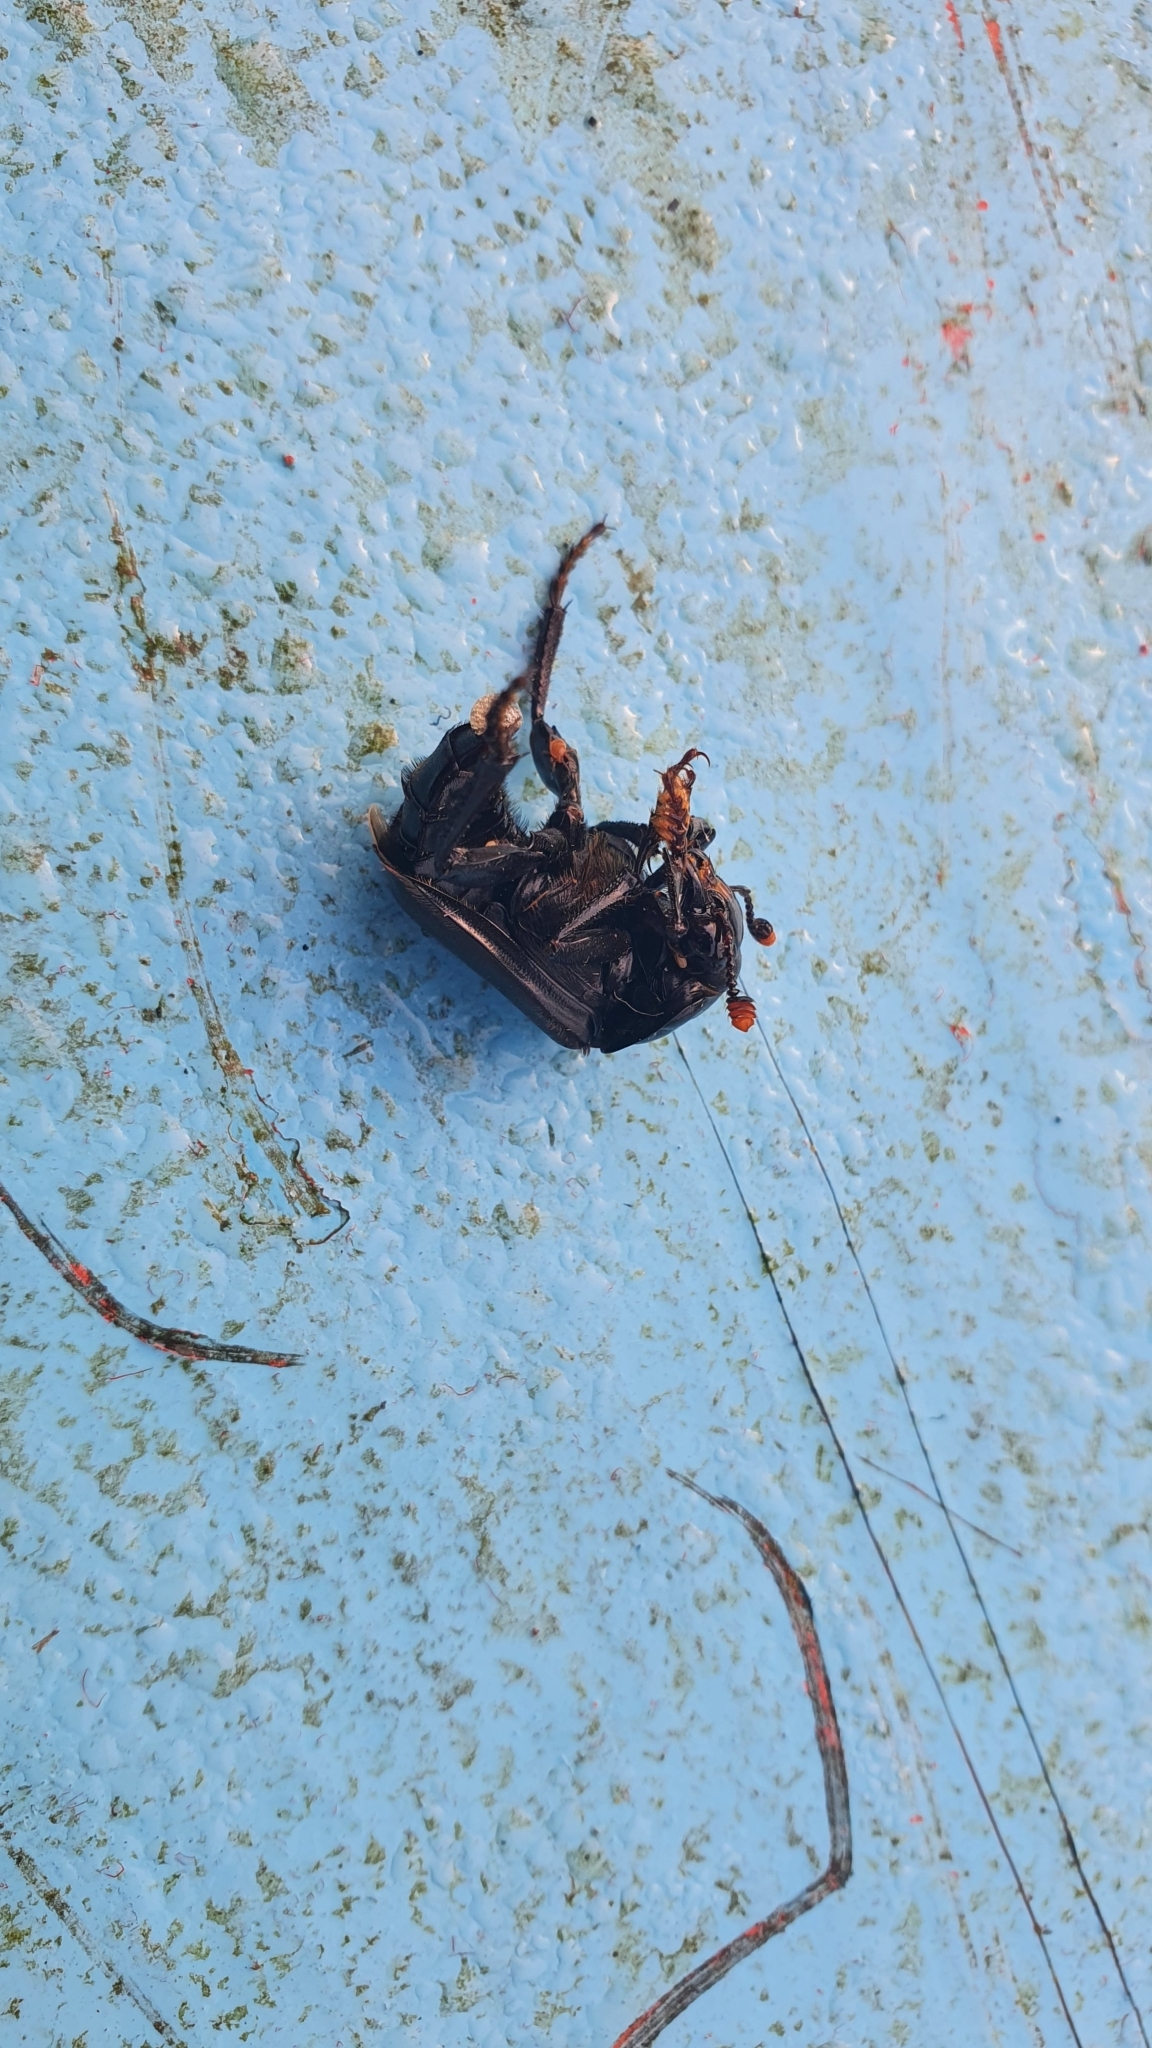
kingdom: Animalia
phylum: Arthropoda
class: Insecta
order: Coleoptera
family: Staphylinidae
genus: Nicrophorus
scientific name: Nicrophorus humator
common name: Black sexton beetle
